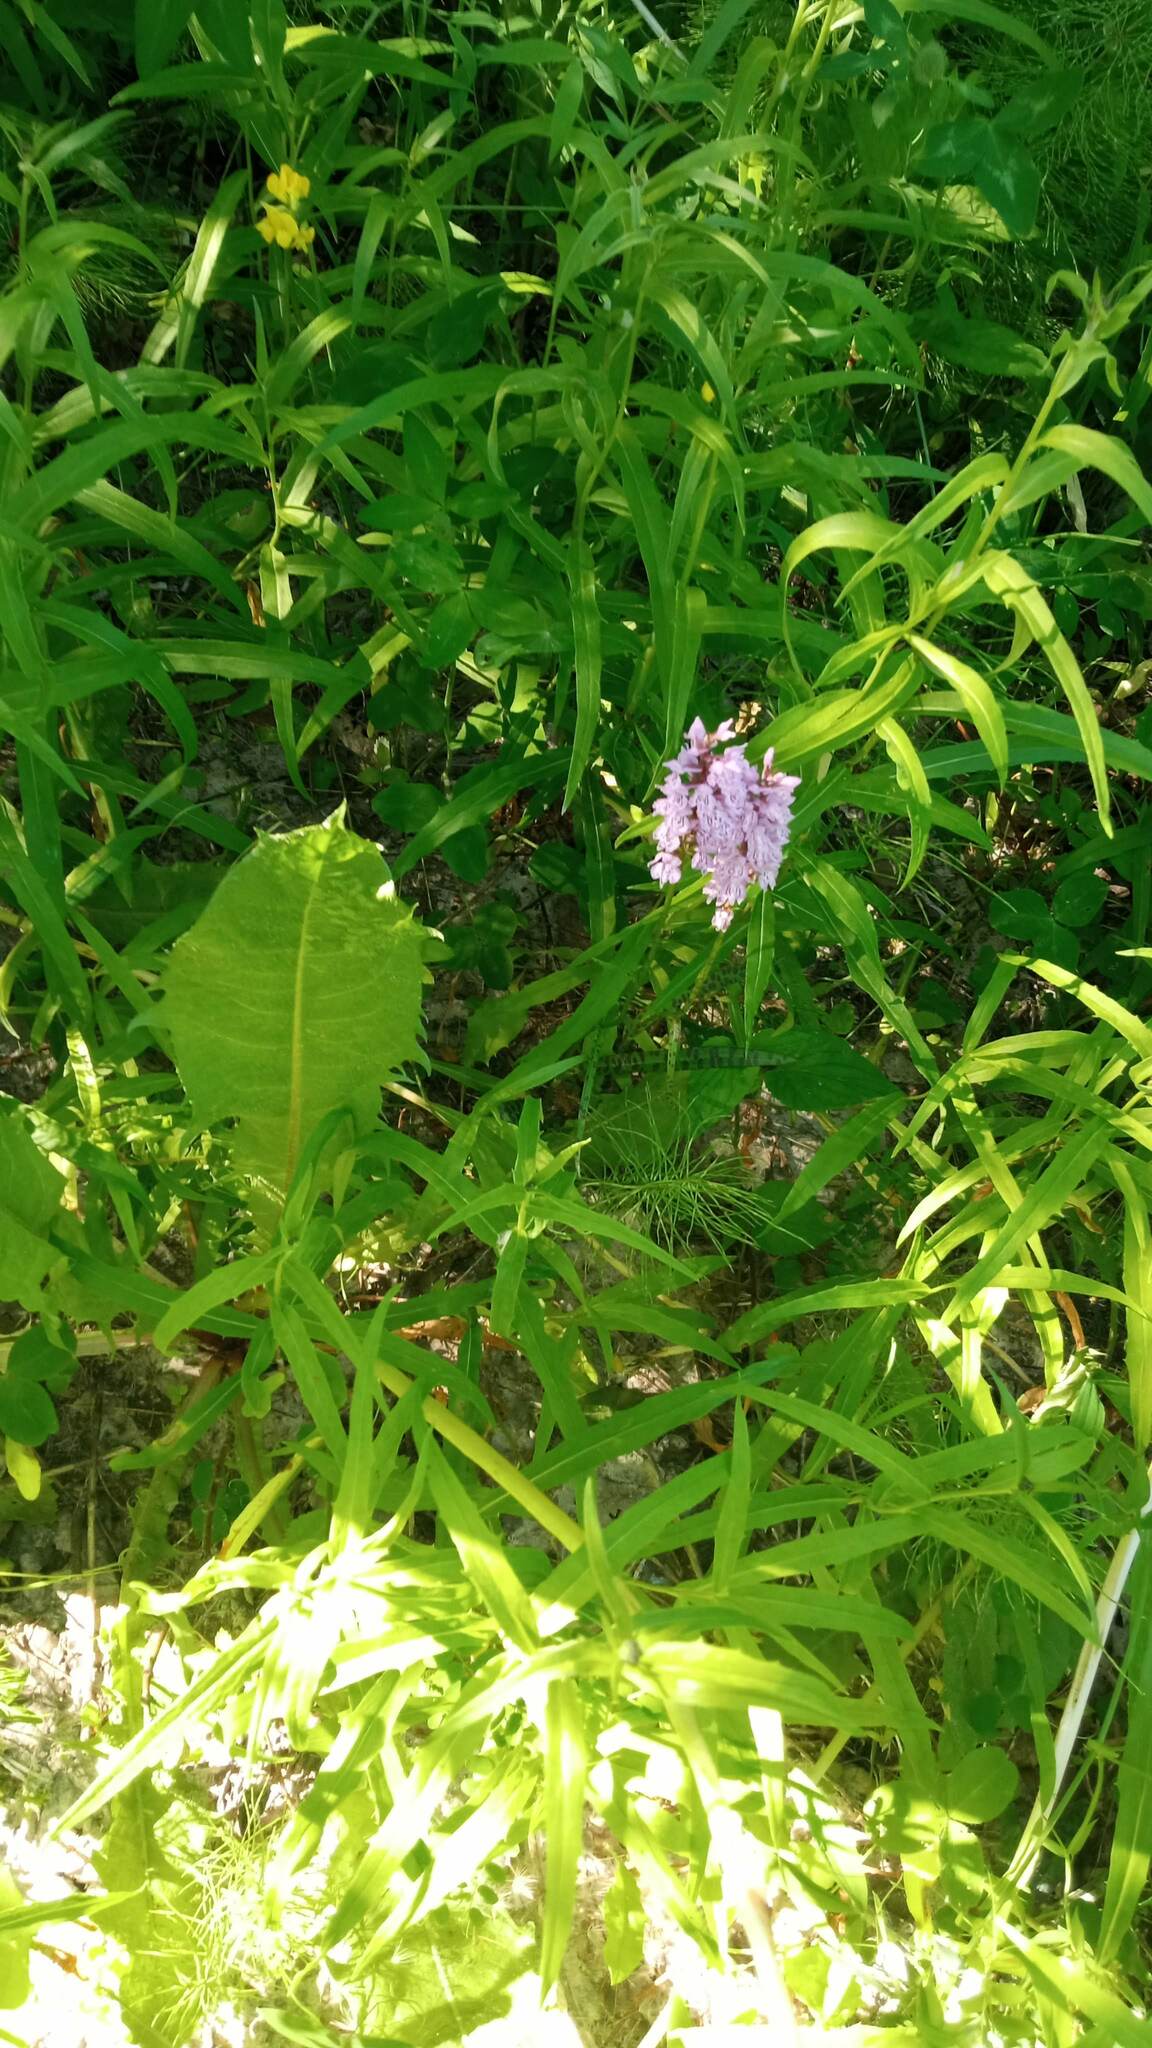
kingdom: Plantae
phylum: Tracheophyta
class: Liliopsida
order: Asparagales
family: Orchidaceae
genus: Dactylorhiza
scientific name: Dactylorhiza maculata
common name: Heath spotted-orchid
